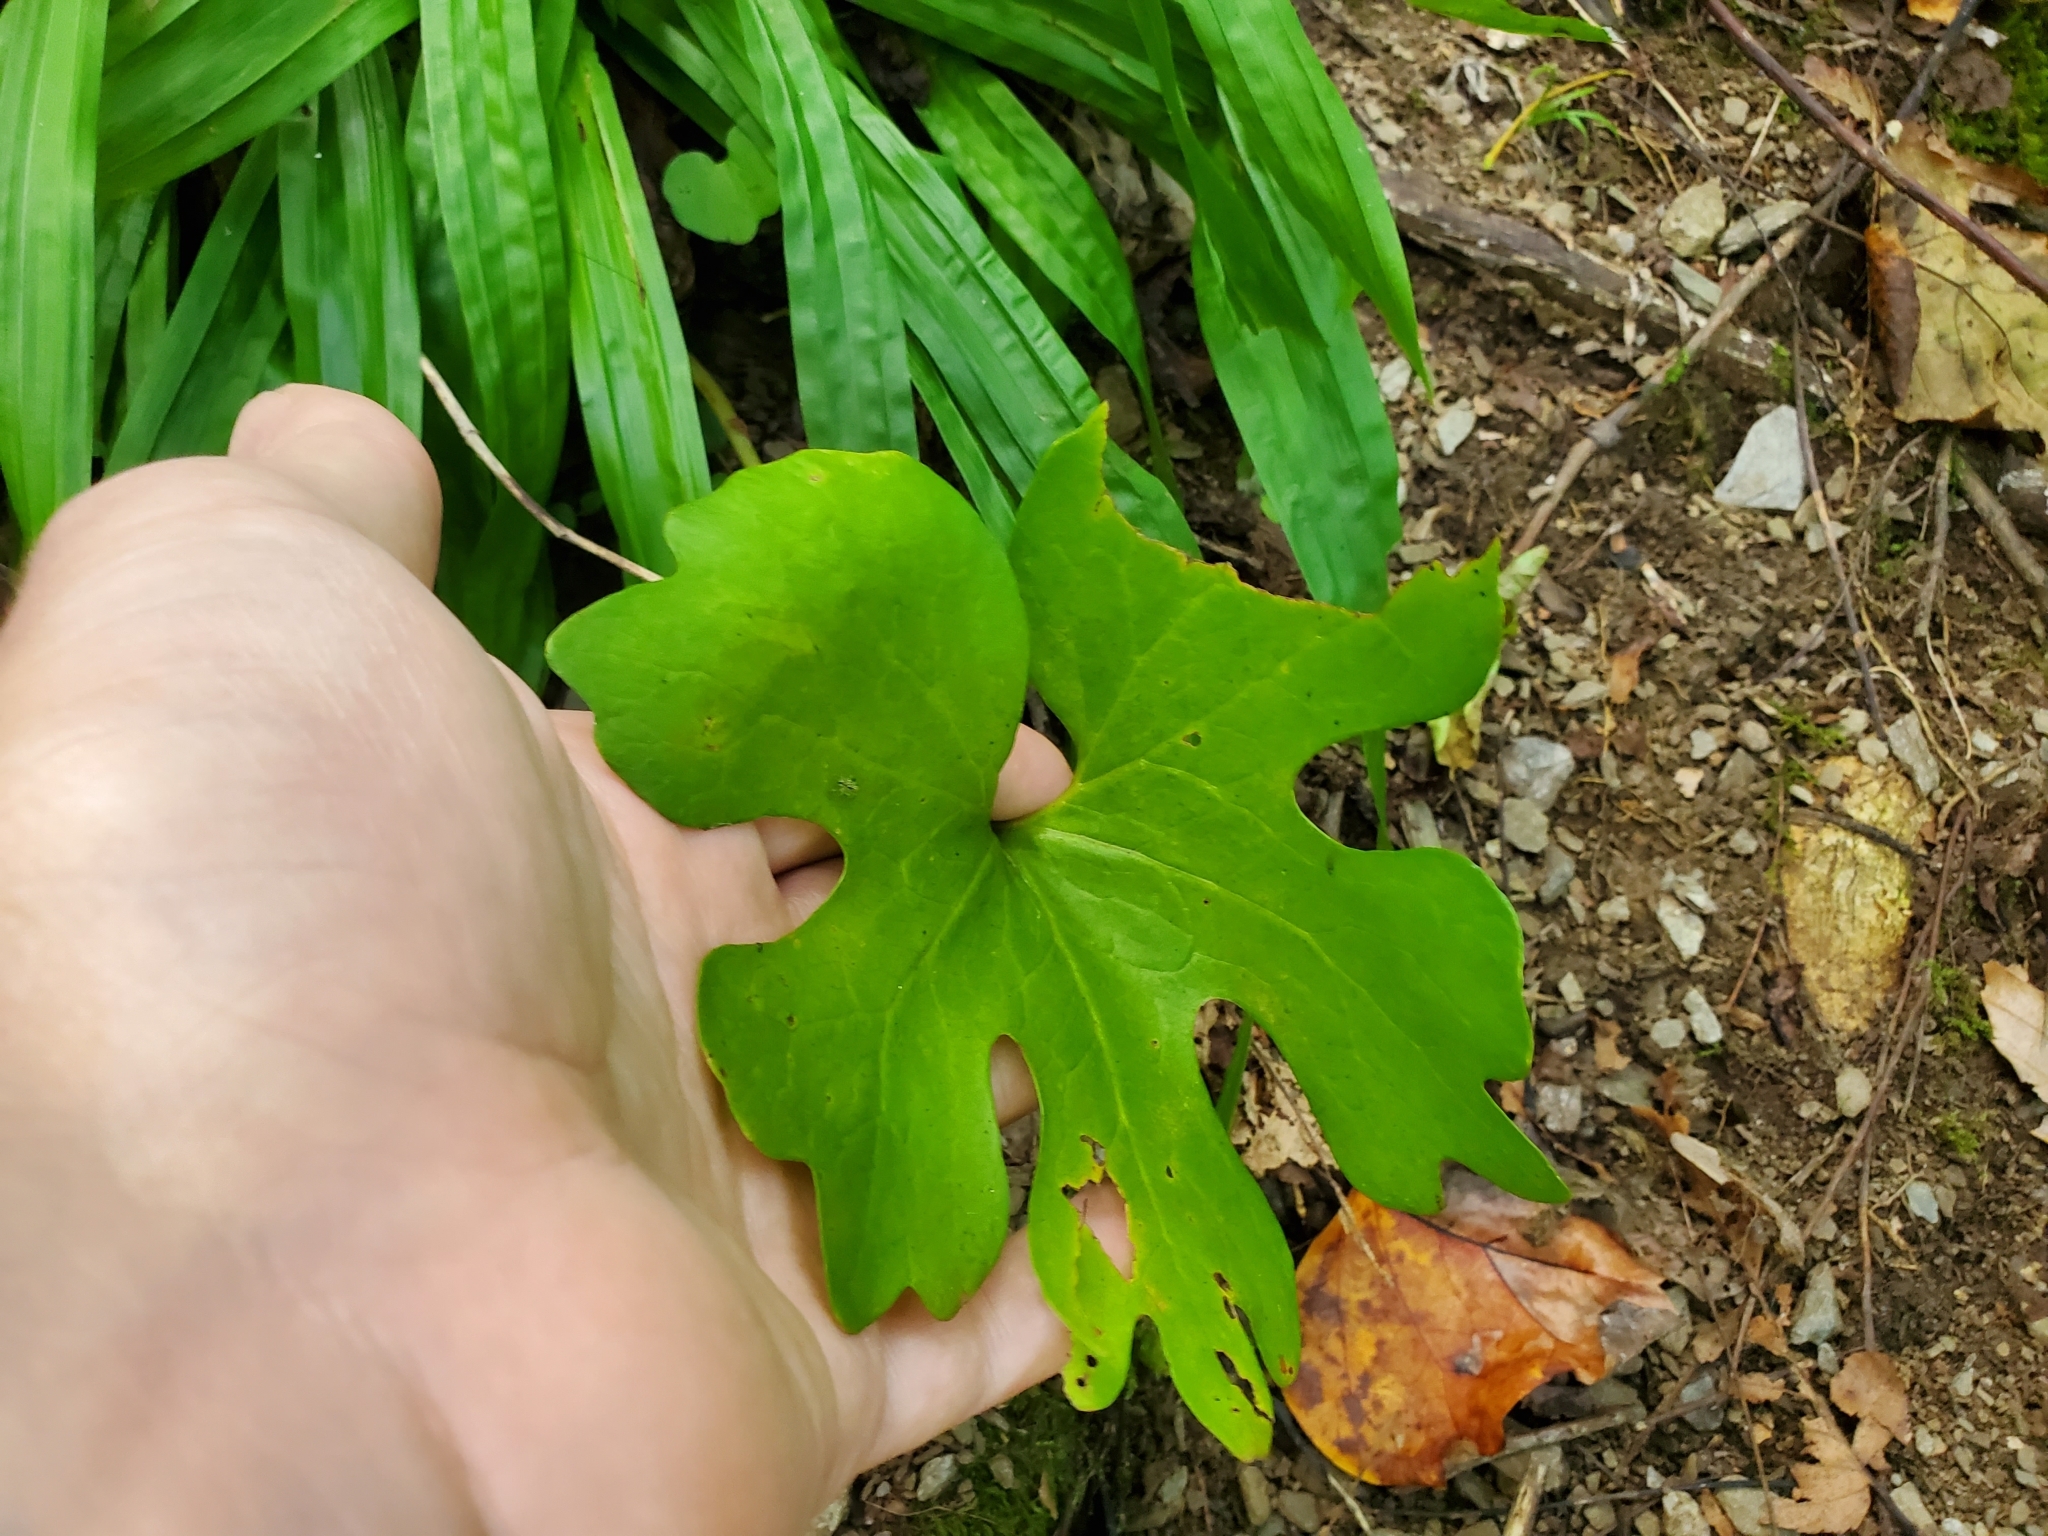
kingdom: Plantae
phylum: Tracheophyta
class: Magnoliopsida
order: Ranunculales
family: Papaveraceae
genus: Sanguinaria
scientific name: Sanguinaria canadensis
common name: Bloodroot
